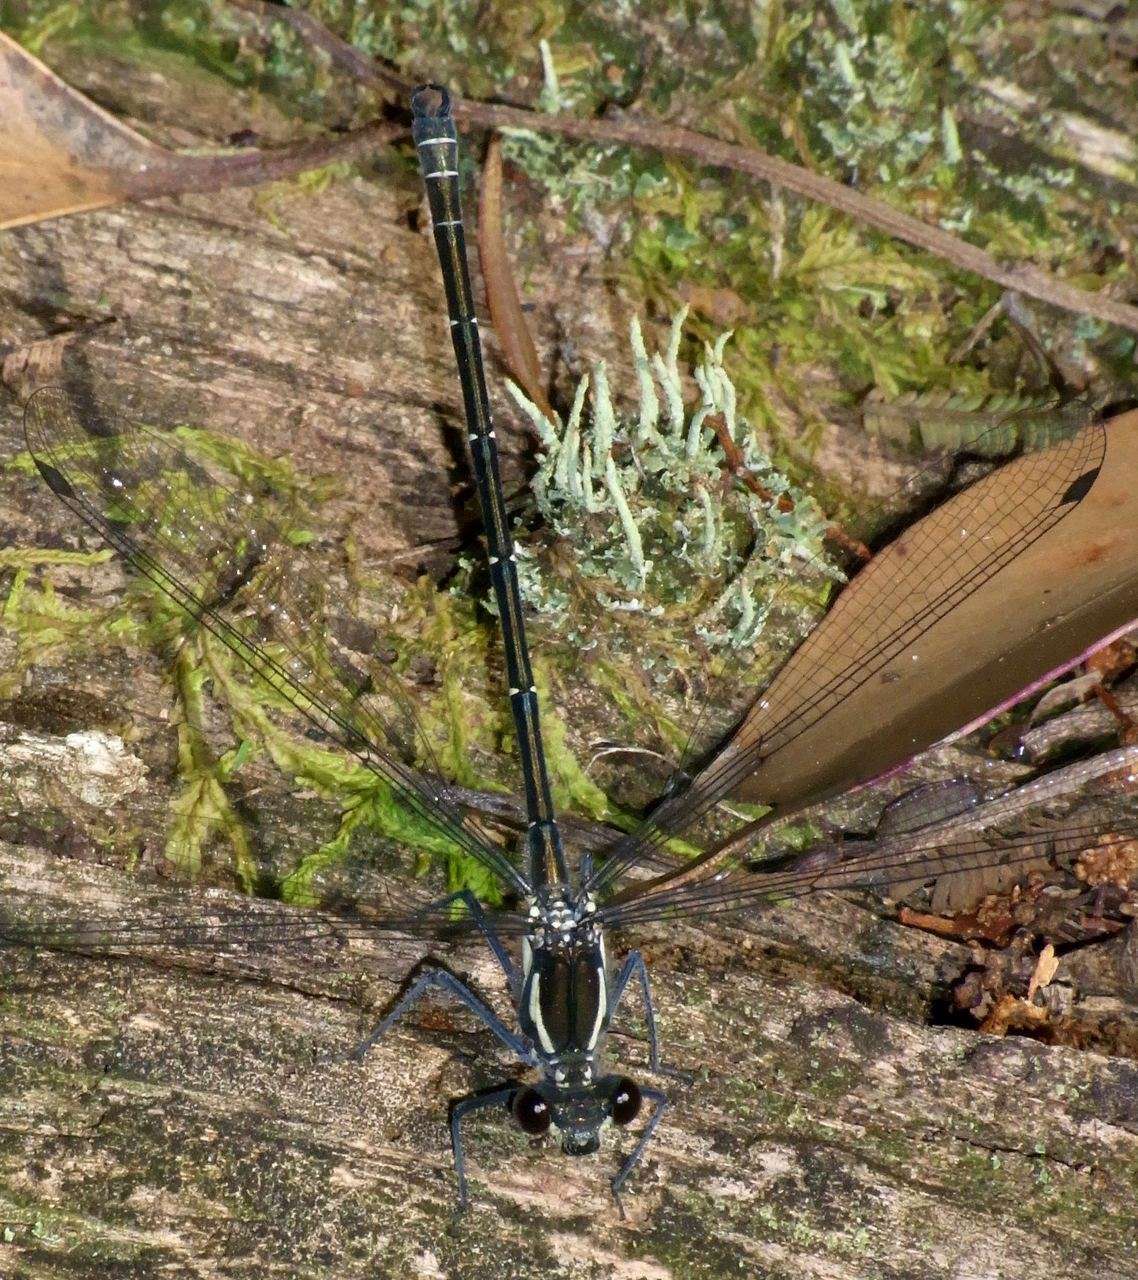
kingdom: Animalia
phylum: Arthropoda
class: Insecta
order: Odonata
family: Argiolestidae
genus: Austroargiolestes
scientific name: Austroargiolestes icteromelas
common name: Common flatwing
